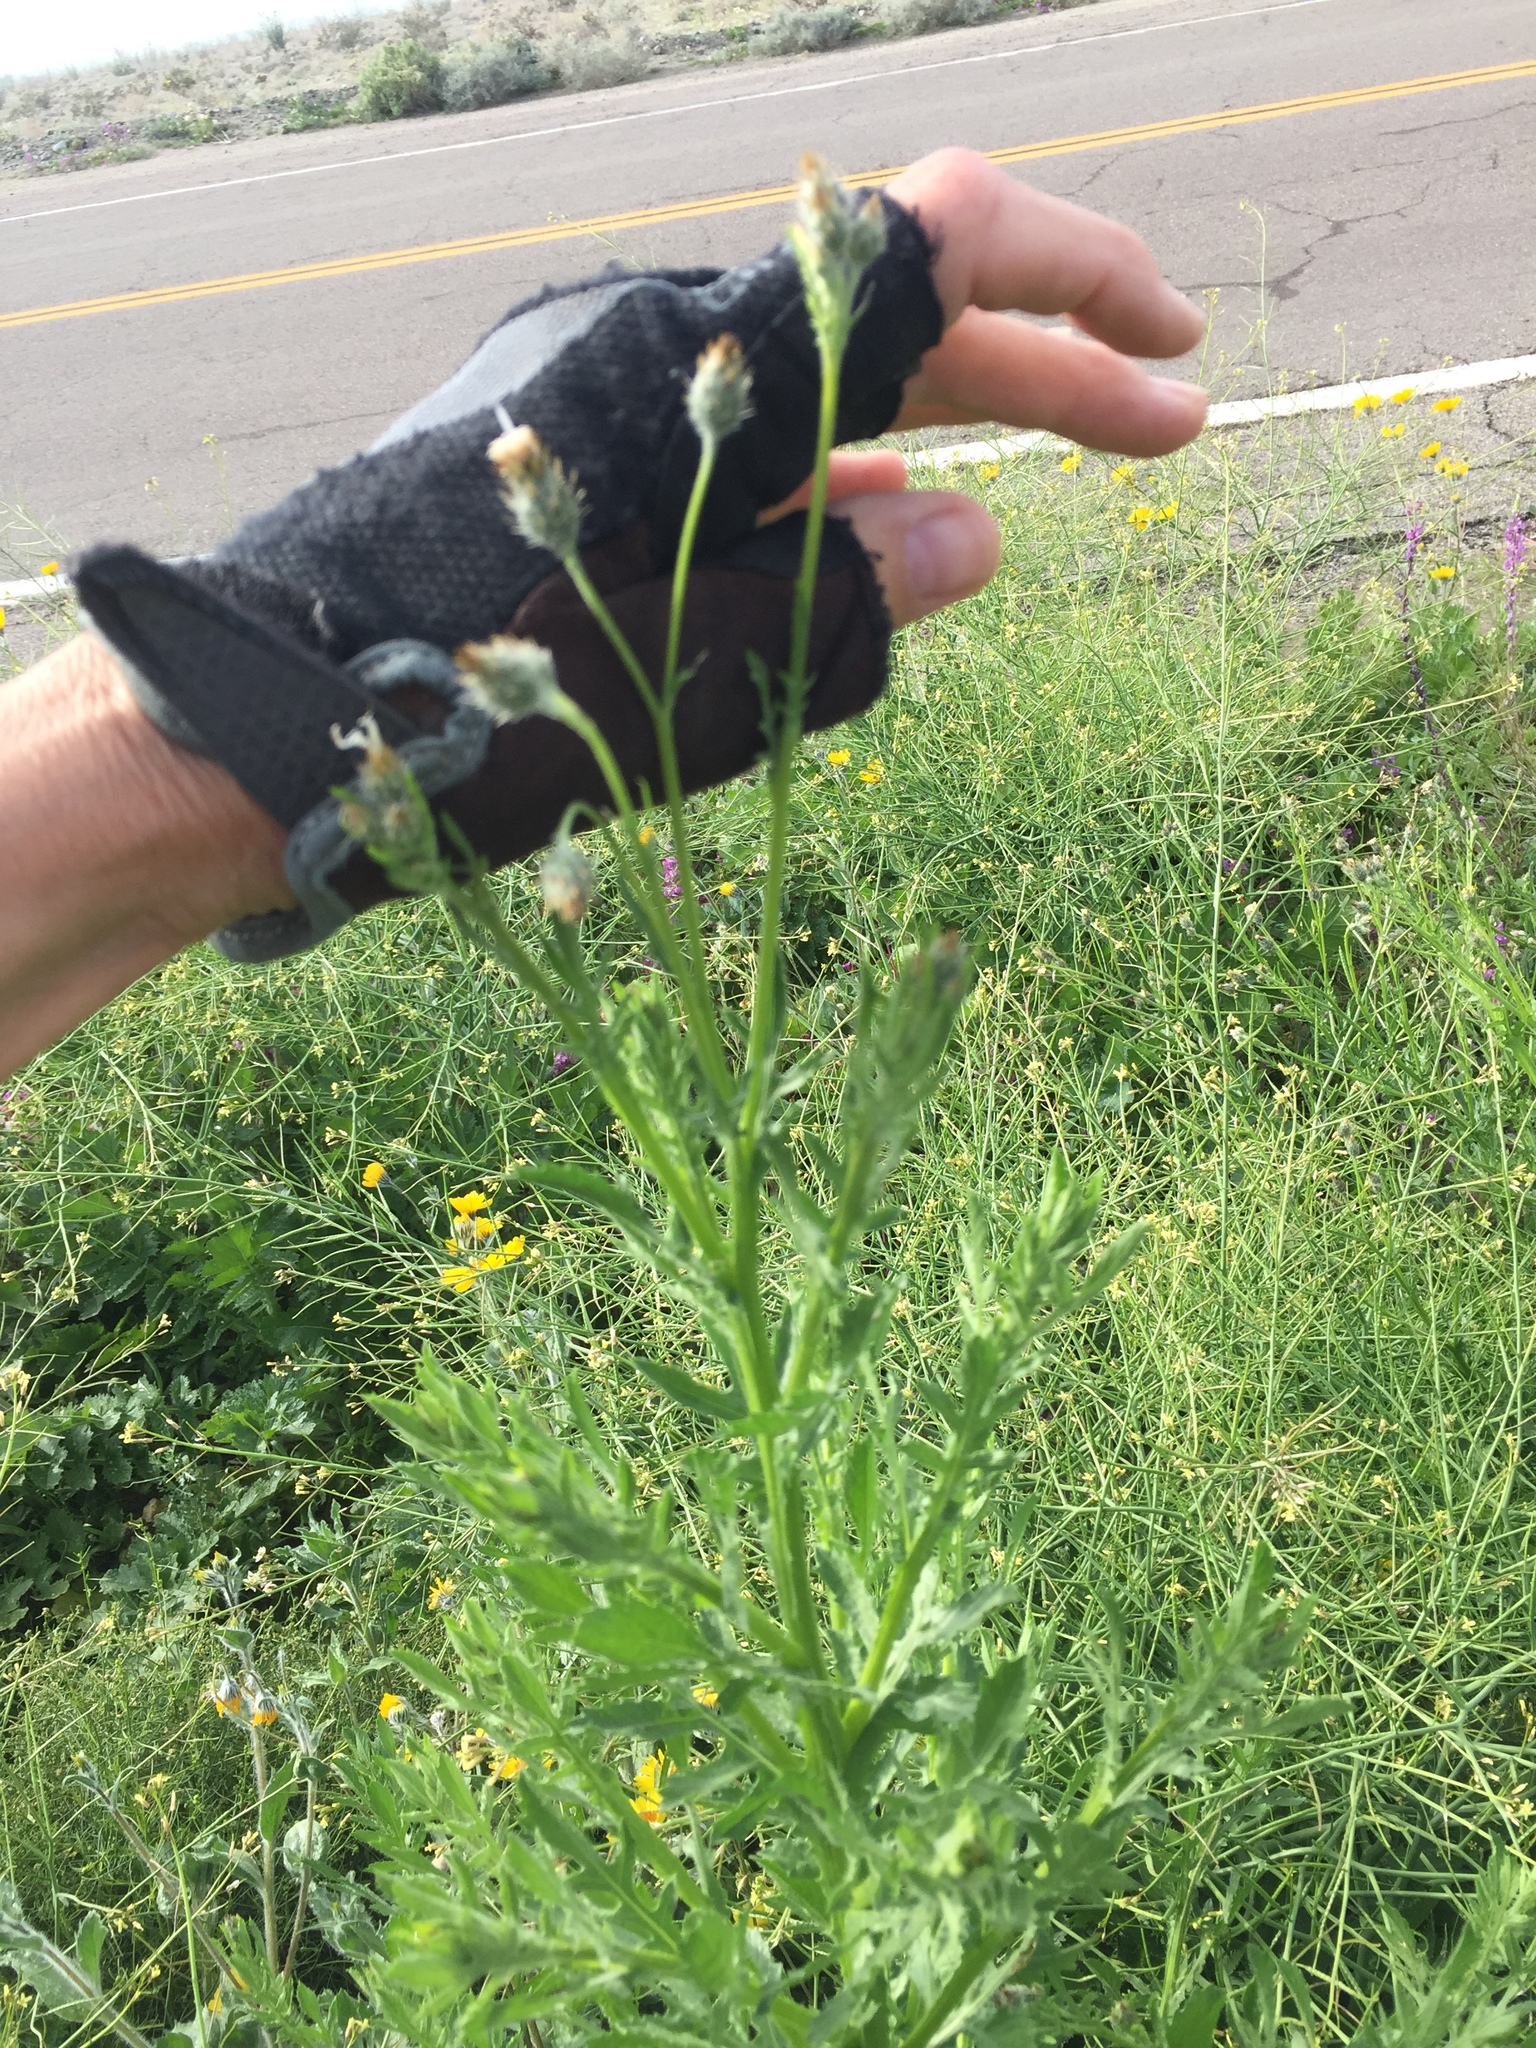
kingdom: Plantae
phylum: Tracheophyta
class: Magnoliopsida
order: Asterales
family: Asteraceae
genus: Volutaria
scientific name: Volutaria tubuliflora
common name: Desert knapweed
